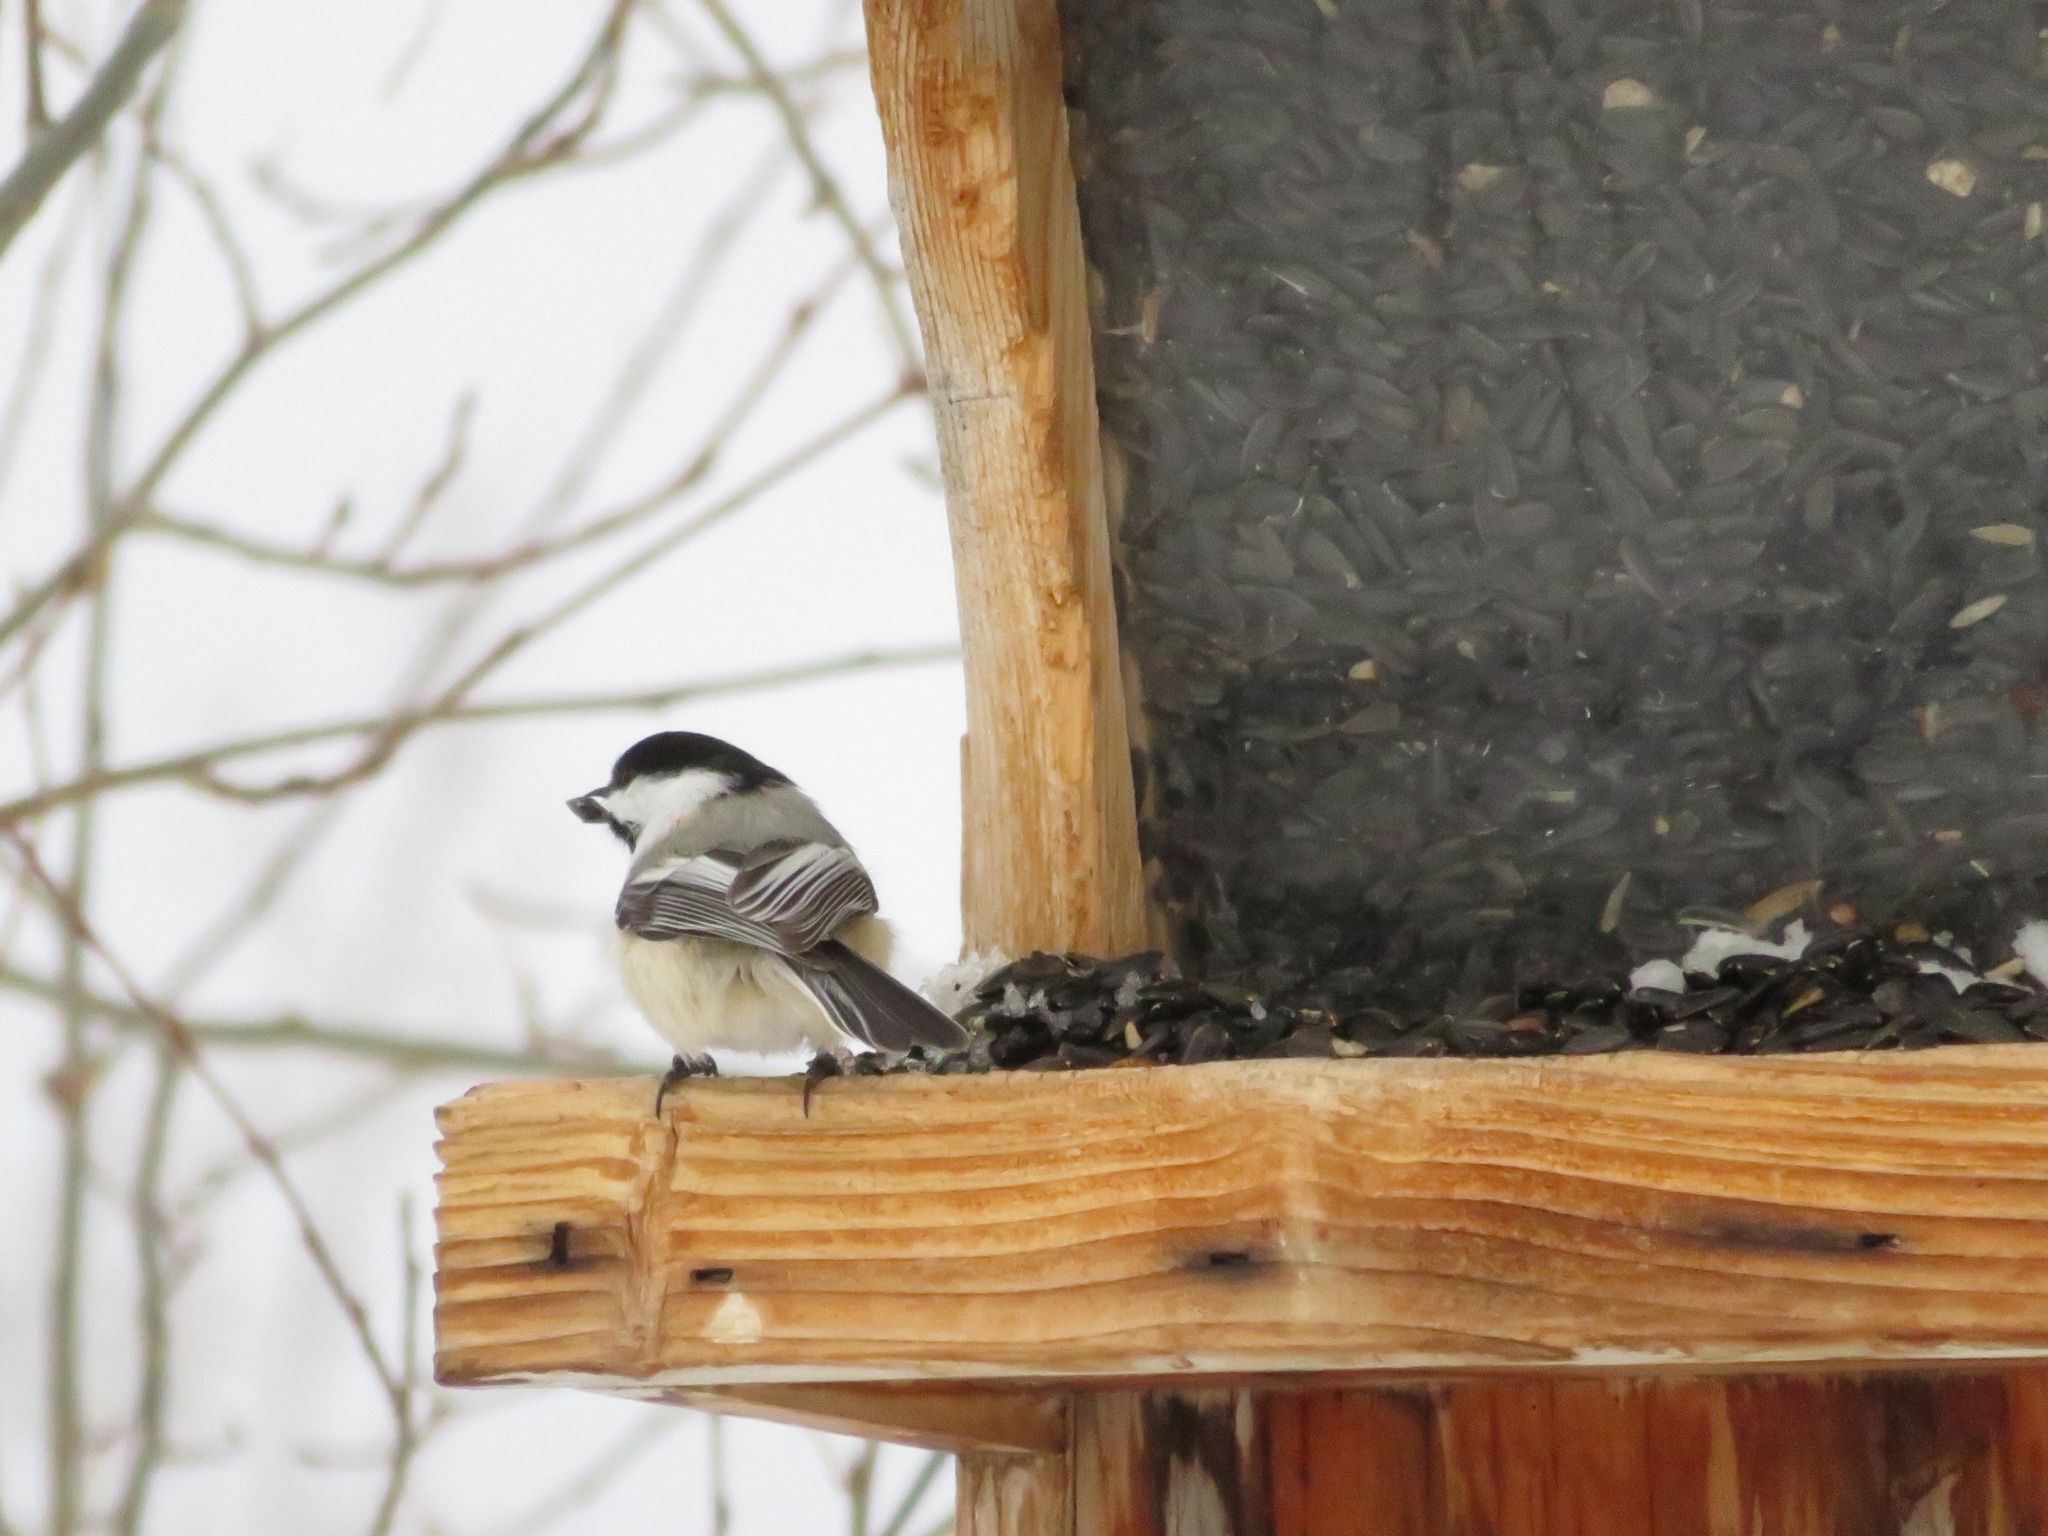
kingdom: Animalia
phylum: Chordata
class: Aves
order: Passeriformes
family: Paridae
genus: Poecile
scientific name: Poecile atricapillus
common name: Black-capped chickadee
